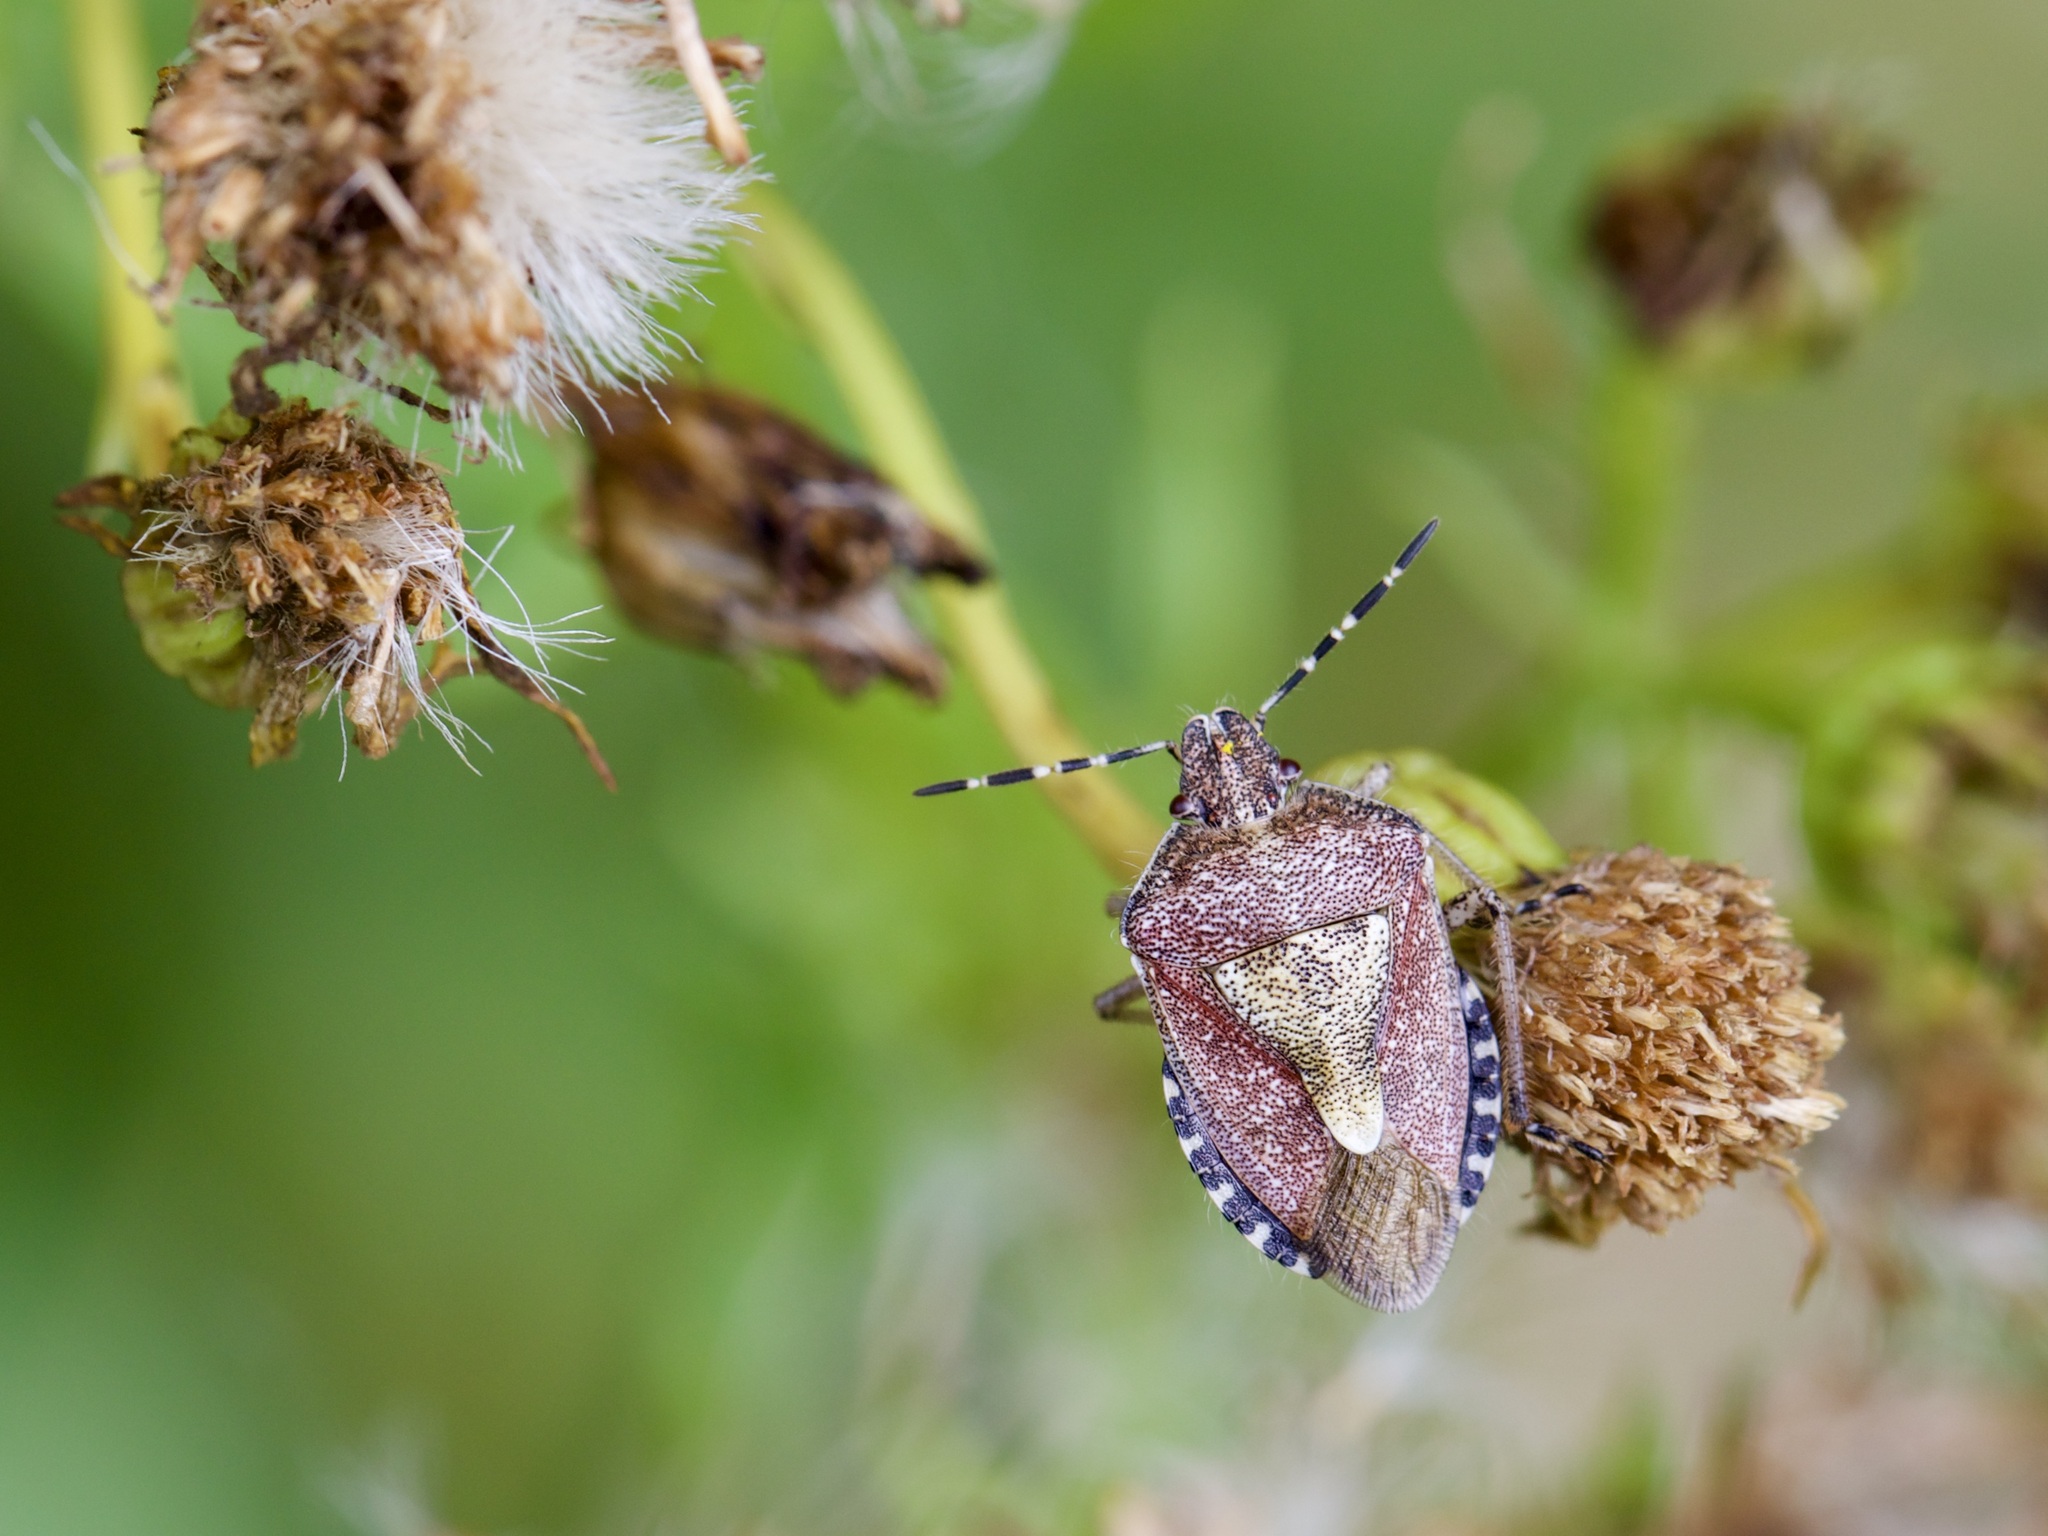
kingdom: Animalia
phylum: Arthropoda
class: Insecta
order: Hemiptera
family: Pentatomidae
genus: Dolycoris
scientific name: Dolycoris baccarum
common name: Sloe bug
